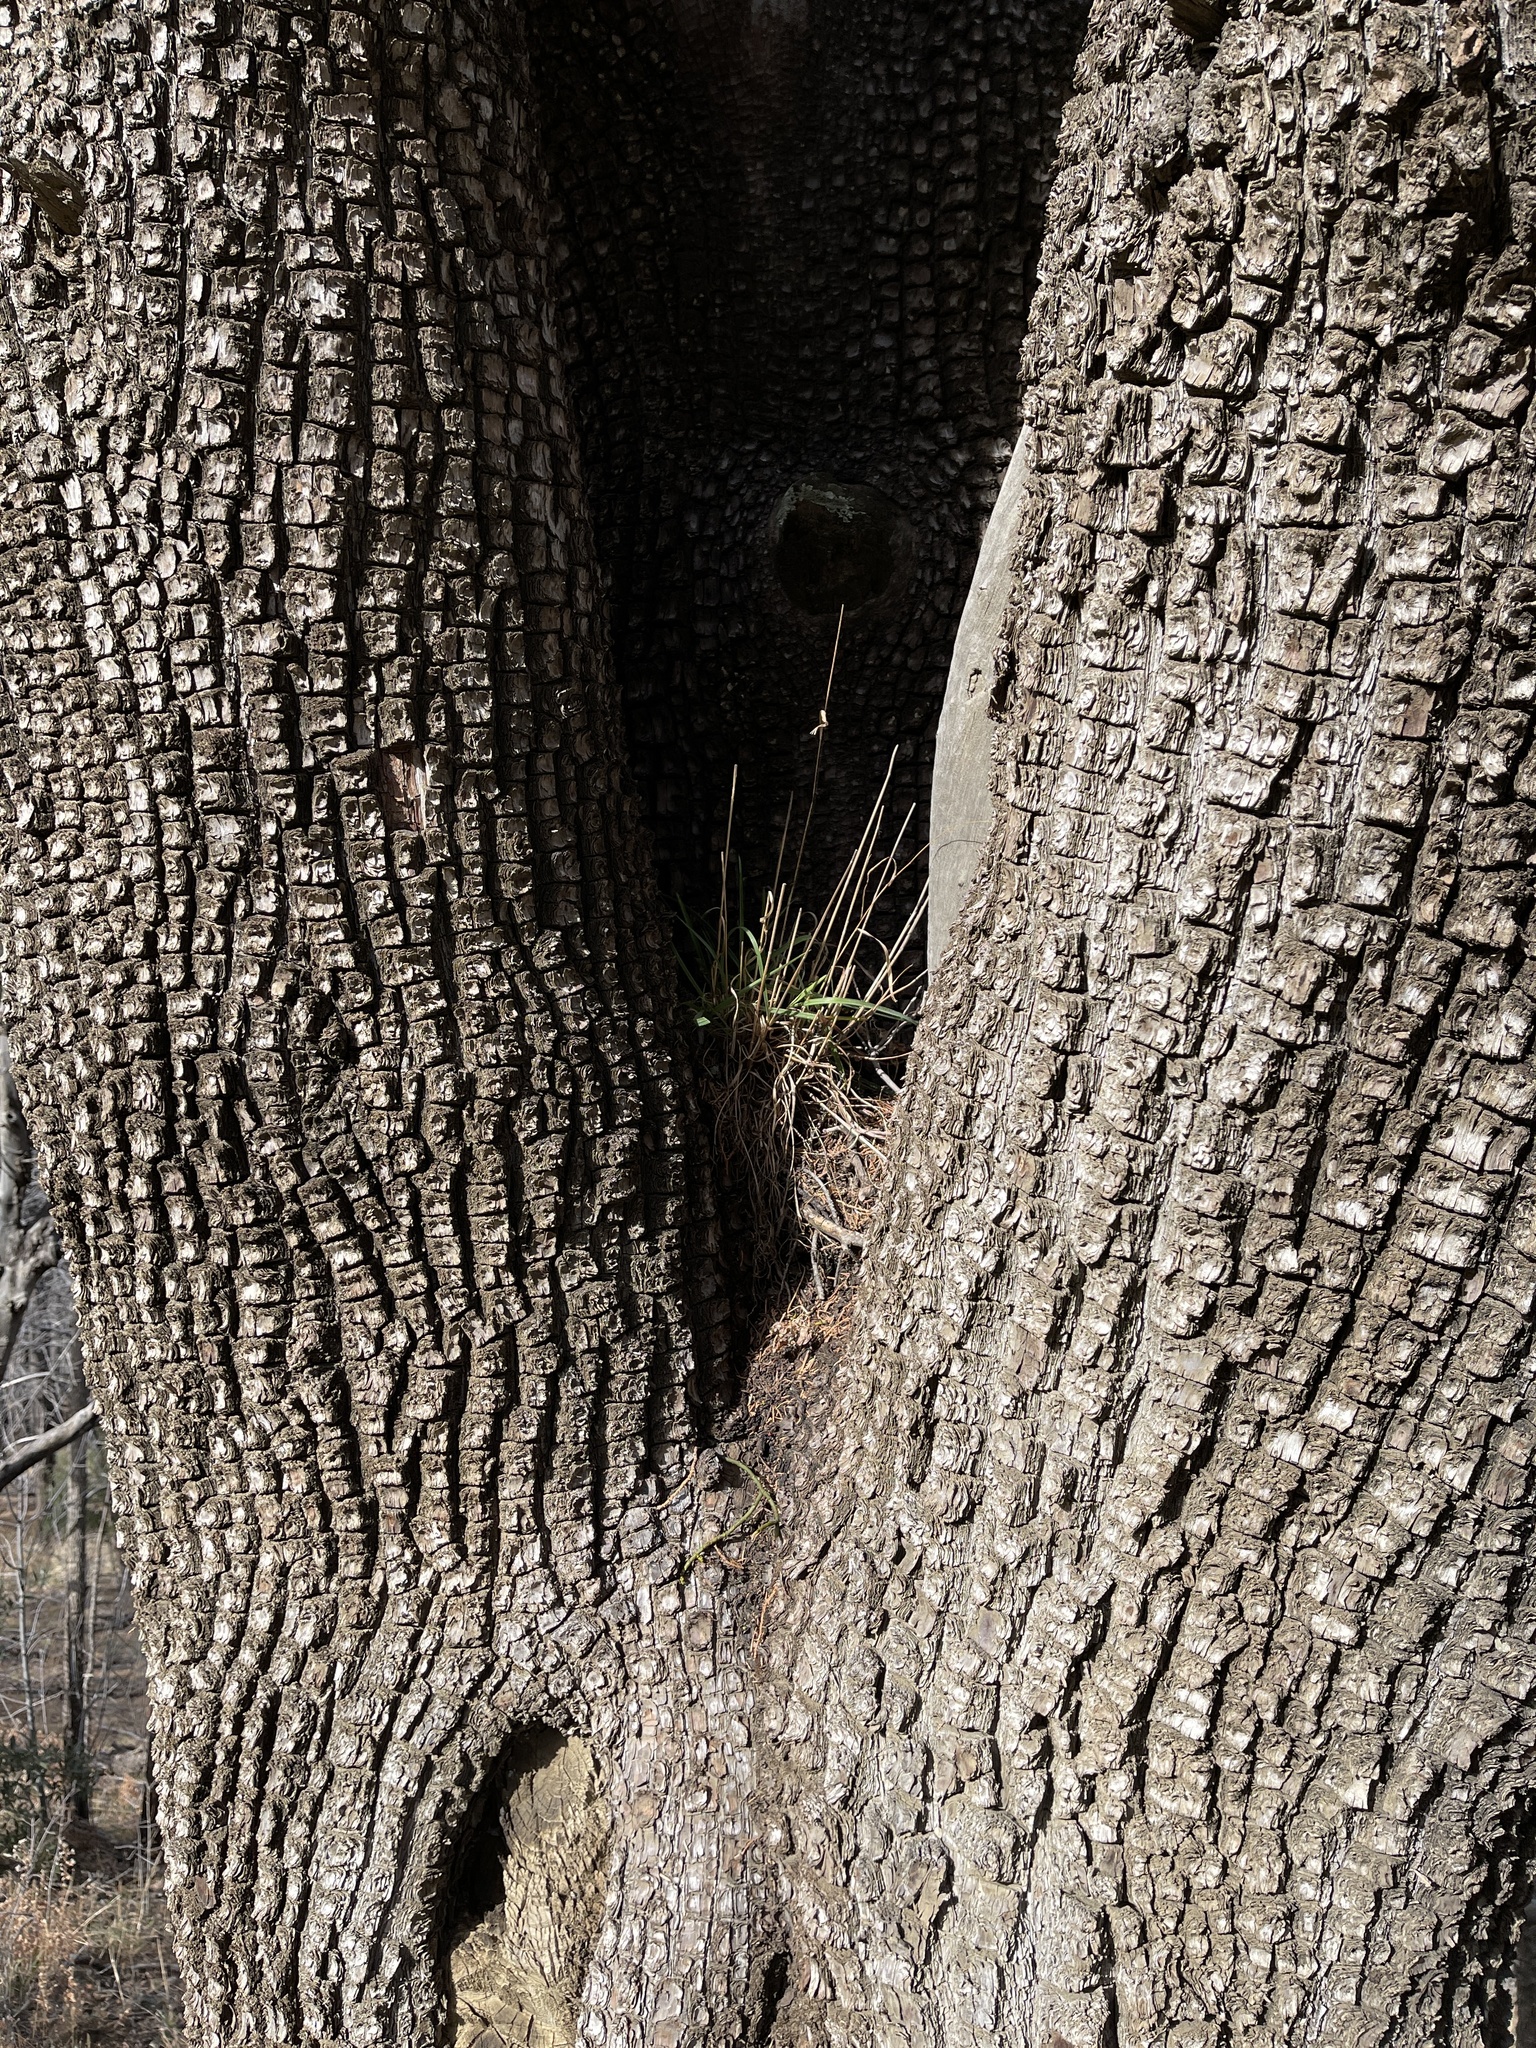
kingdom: Plantae
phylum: Tracheophyta
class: Pinopsida
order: Pinales
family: Cupressaceae
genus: Juniperus
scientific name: Juniperus deppeana
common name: Alligator juniper
